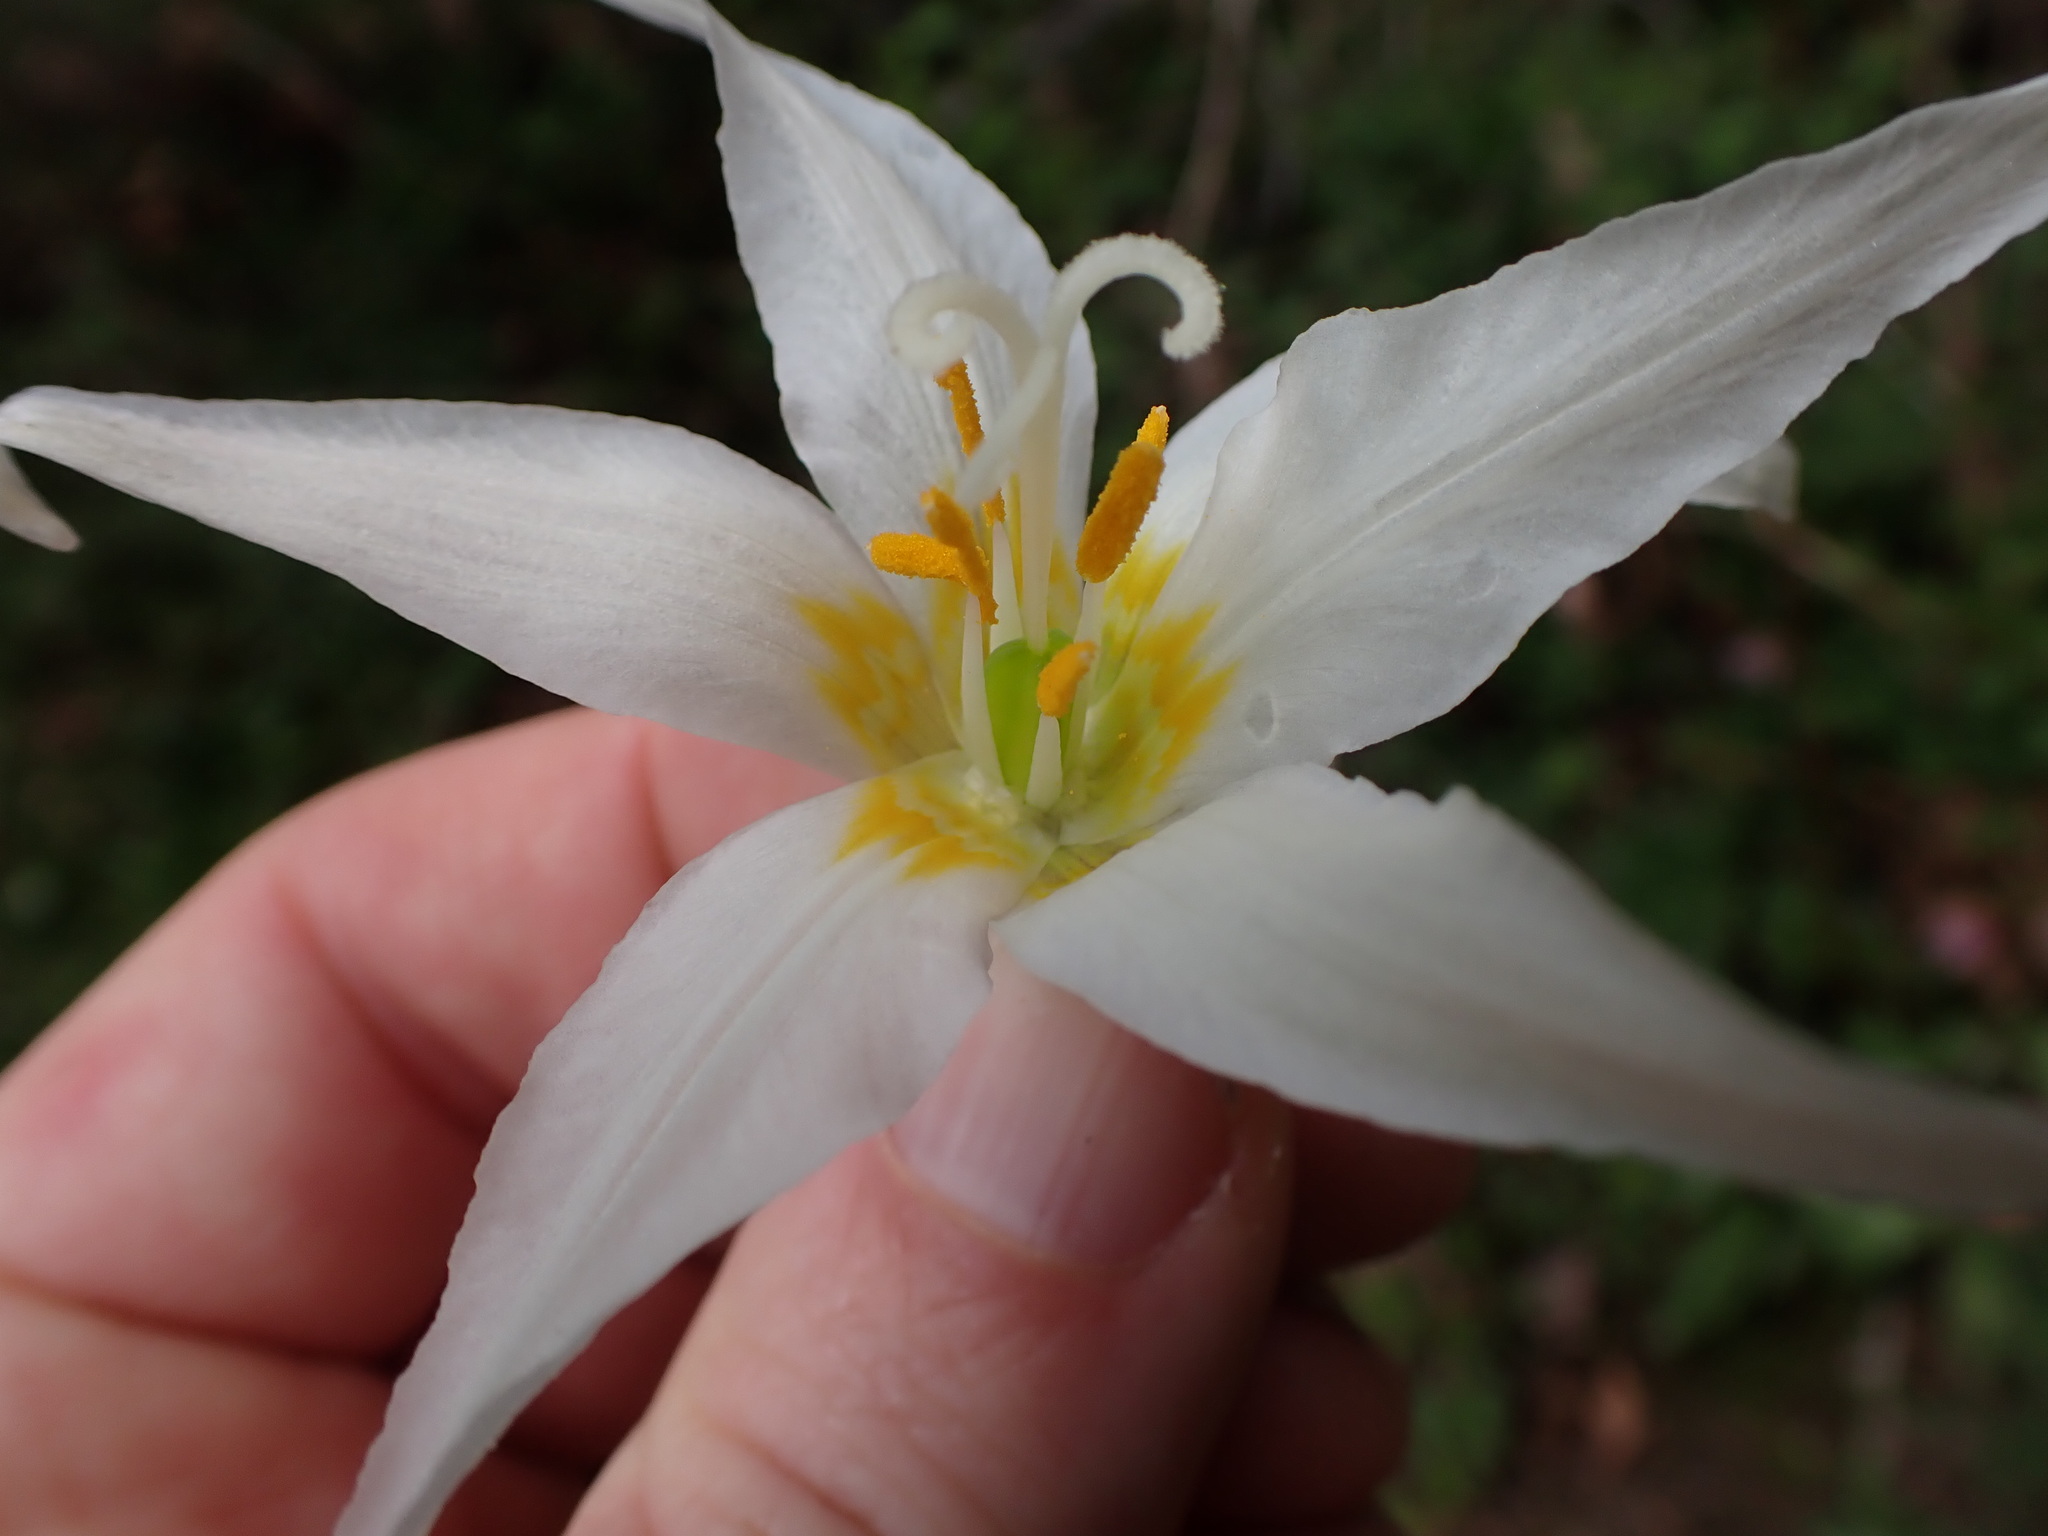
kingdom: Plantae
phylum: Tracheophyta
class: Liliopsida
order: Liliales
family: Liliaceae
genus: Erythronium
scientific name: Erythronium oregonum
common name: Giant adder's-tongue
